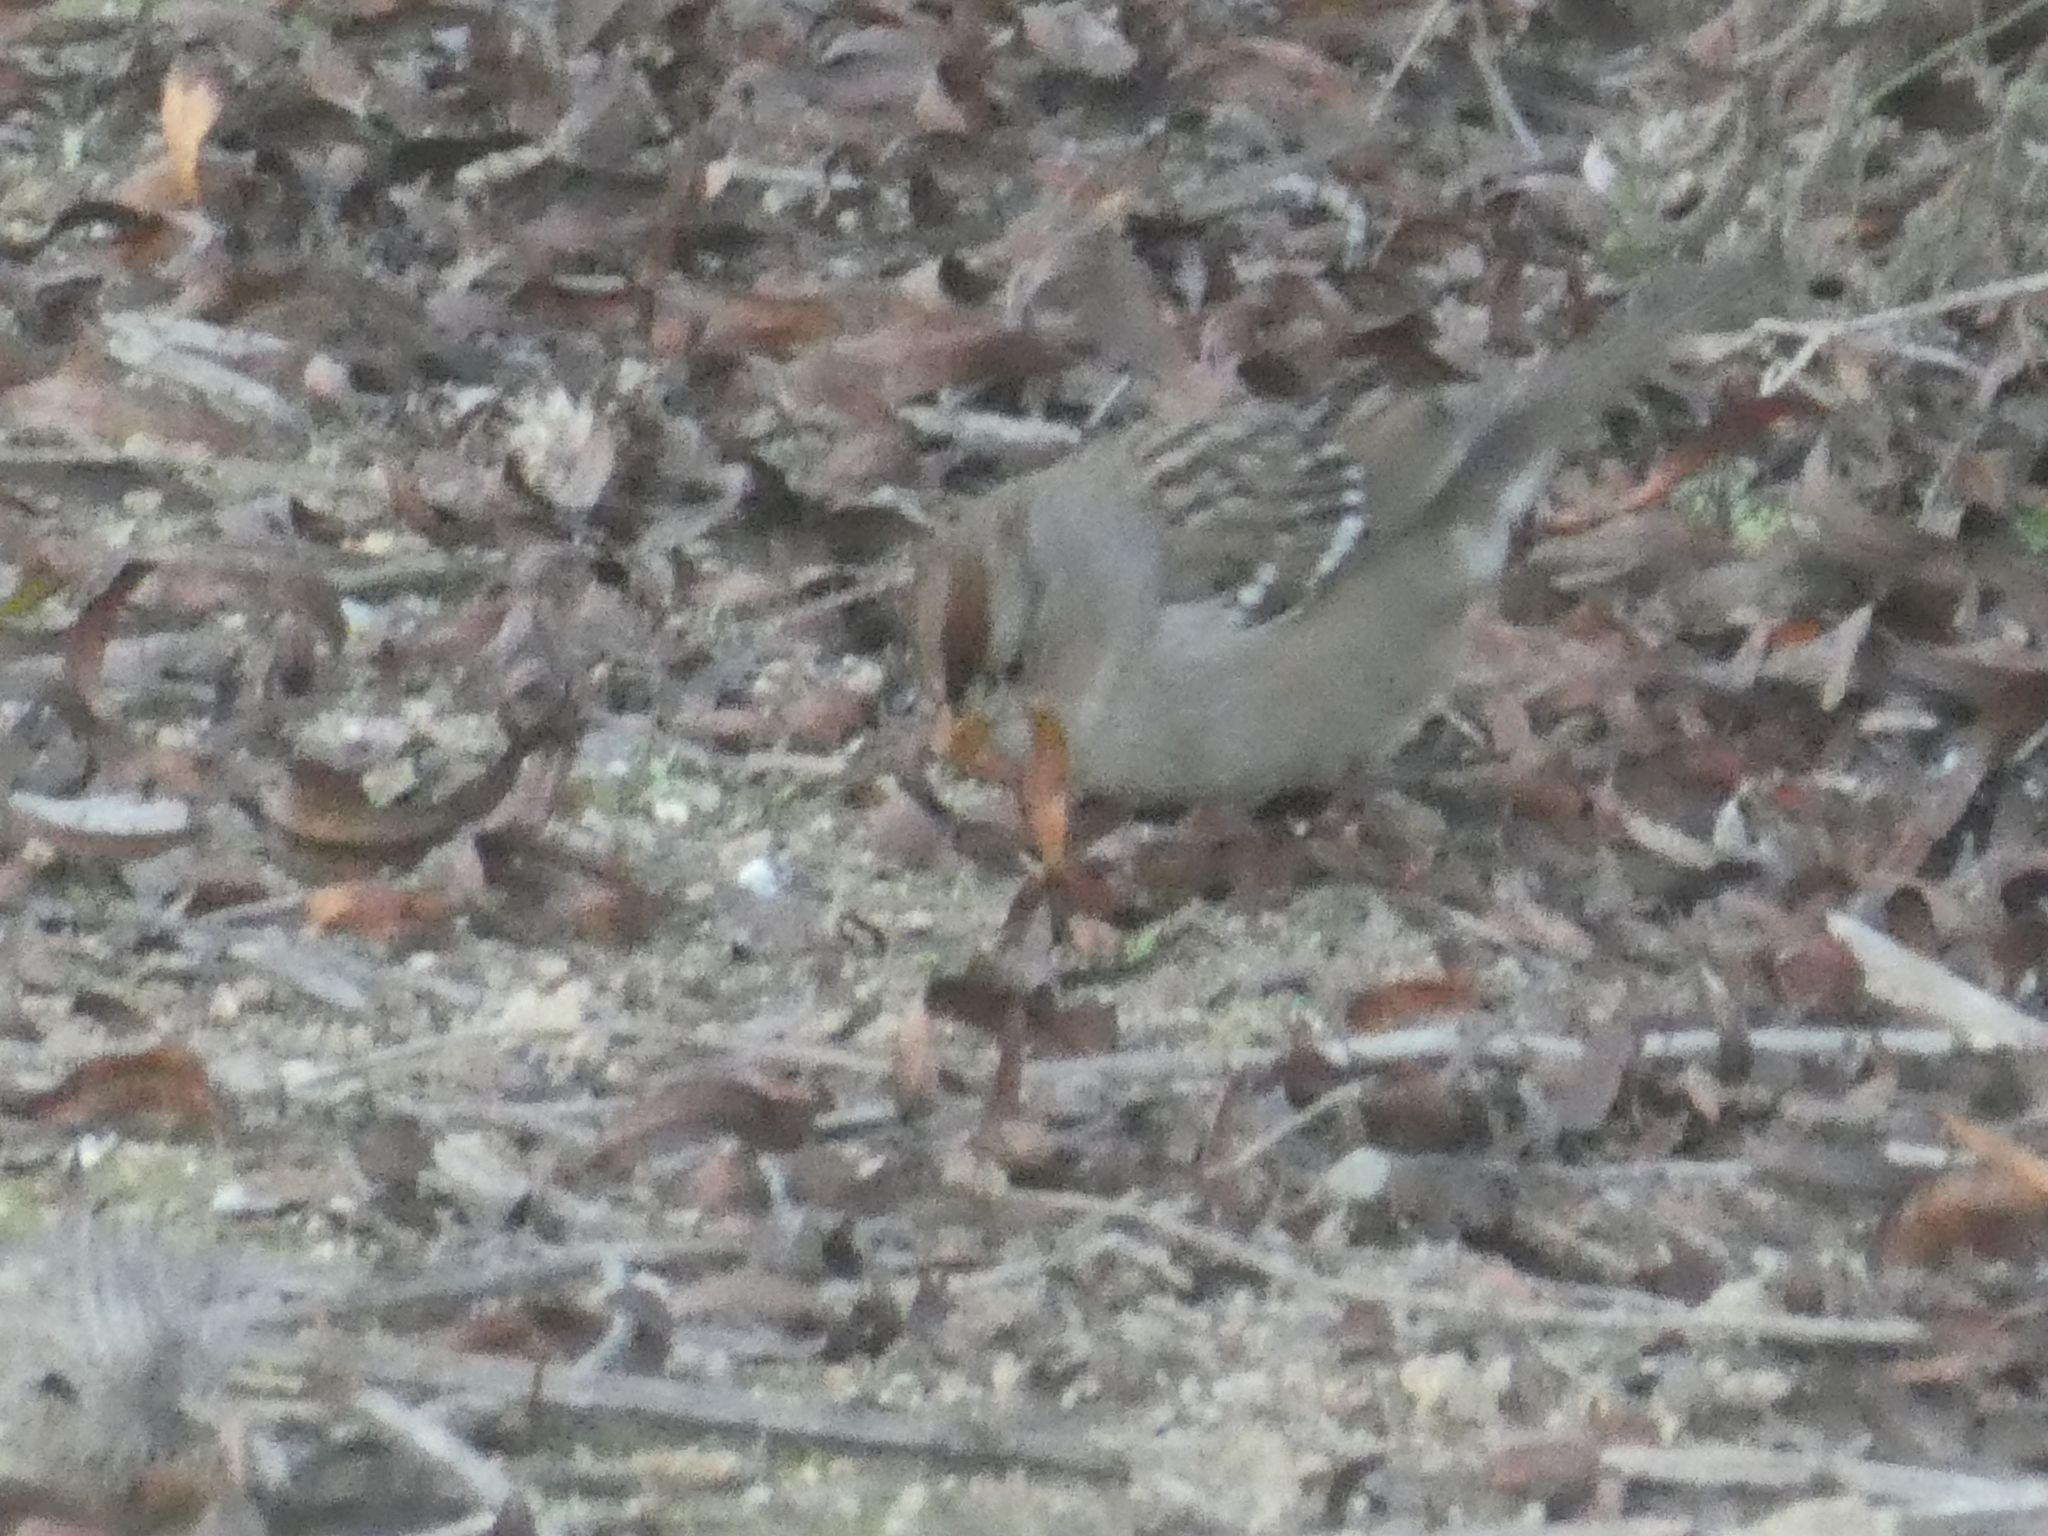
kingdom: Animalia
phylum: Chordata
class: Aves
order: Passeriformes
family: Passerellidae
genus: Zonotrichia
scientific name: Zonotrichia leucophrys
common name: White-crowned sparrow
